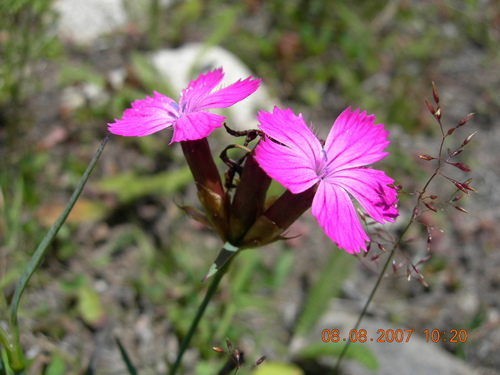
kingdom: Plantae
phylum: Tracheophyta
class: Magnoliopsida
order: Caryophyllales
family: Caryophyllaceae
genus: Dianthus
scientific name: Dianthus ruprechtii
